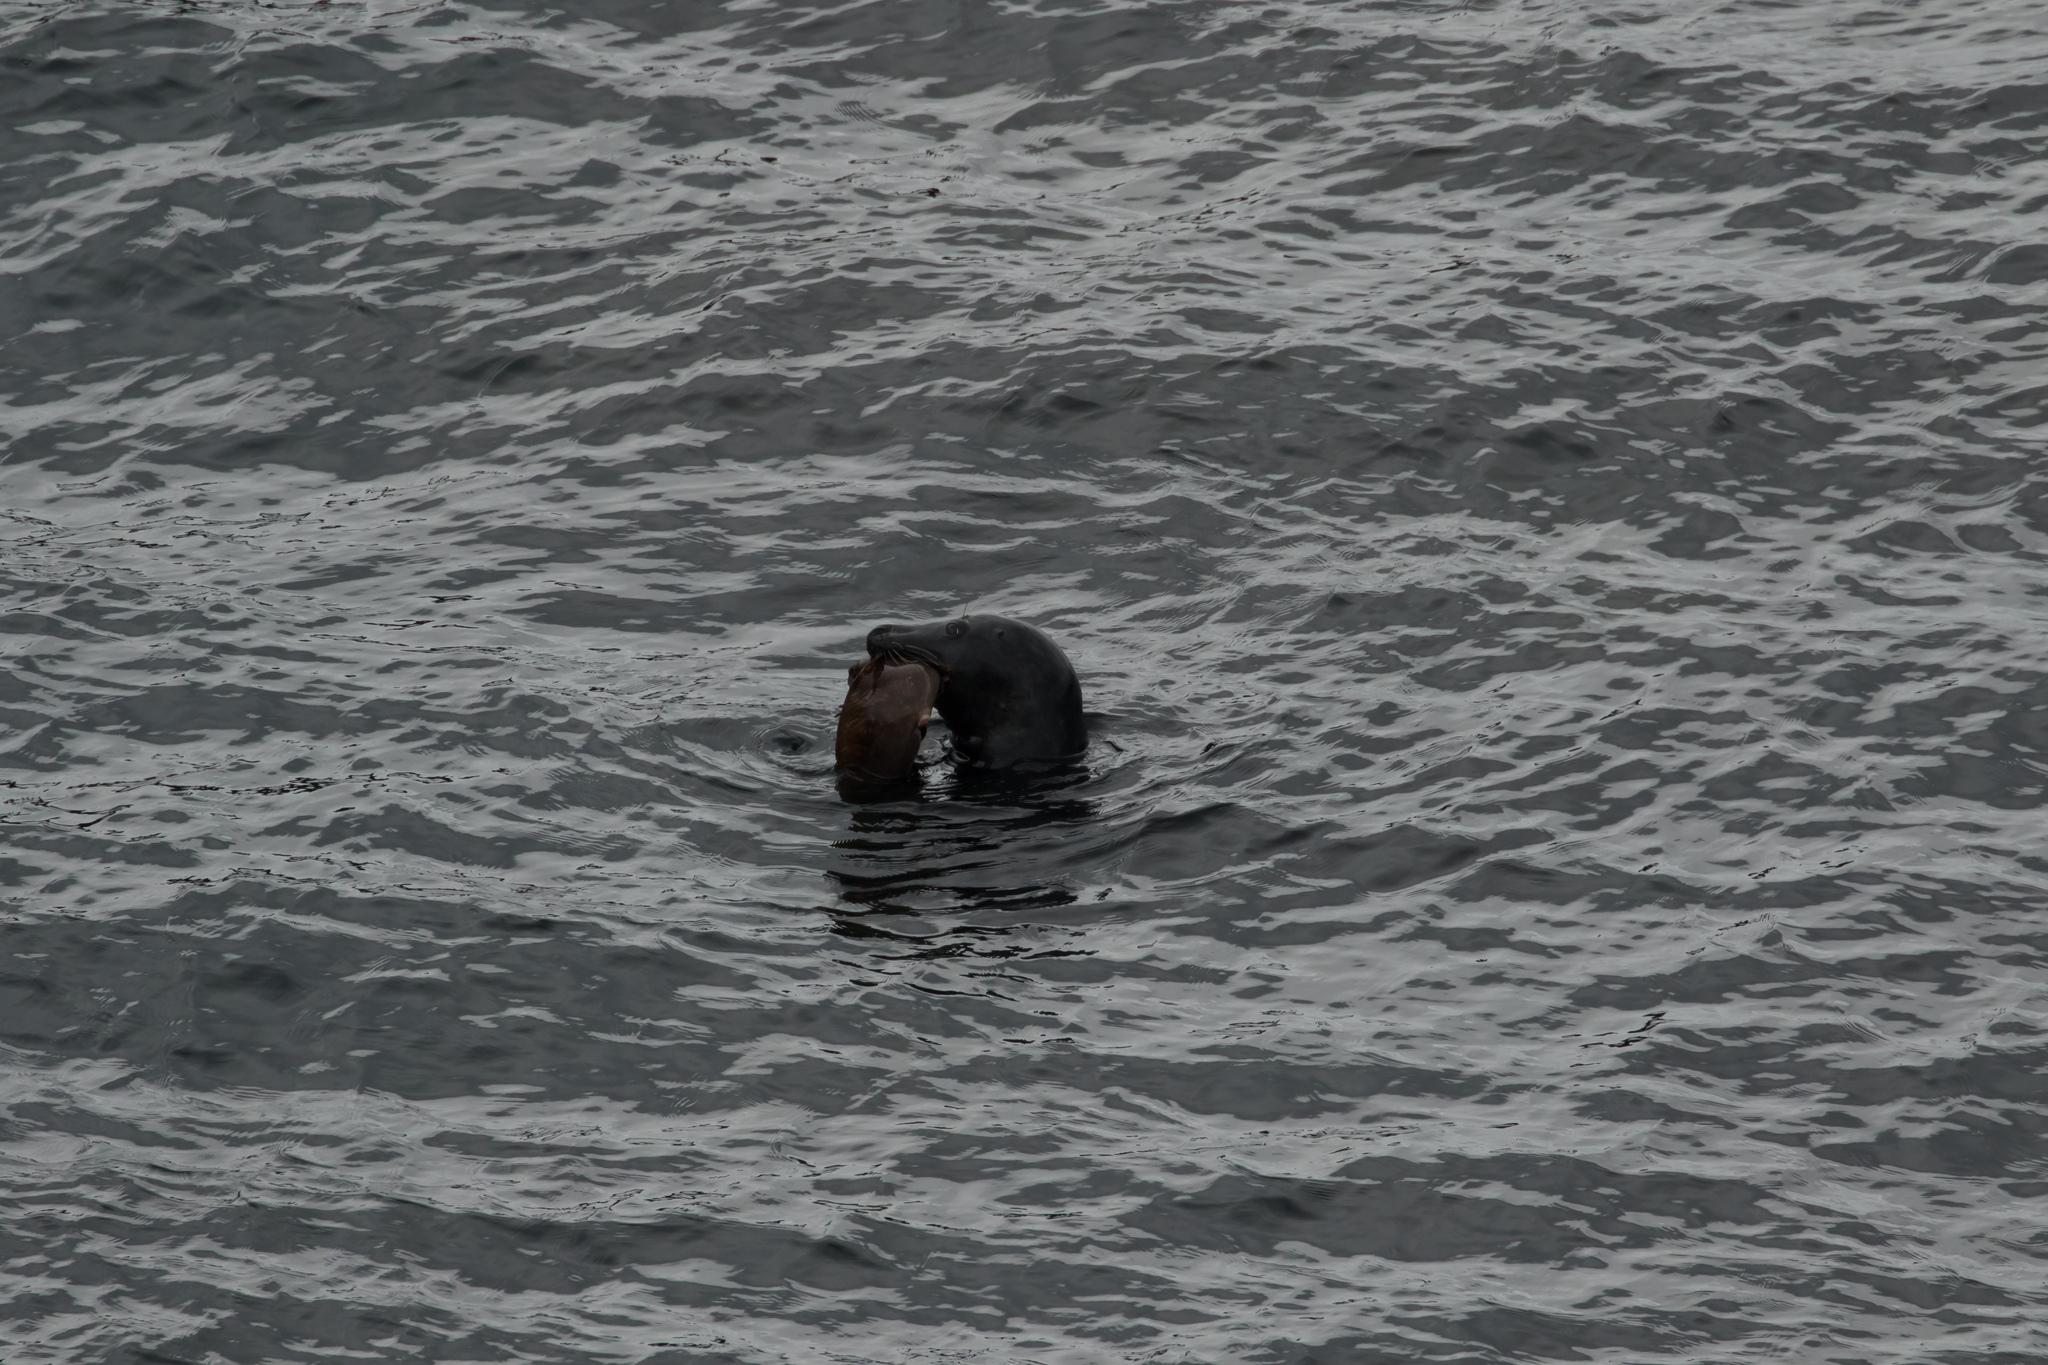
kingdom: Animalia
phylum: Chordata
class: Mammalia
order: Carnivora
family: Phocidae
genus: Halichoerus
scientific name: Halichoerus grypus
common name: Grey seal
